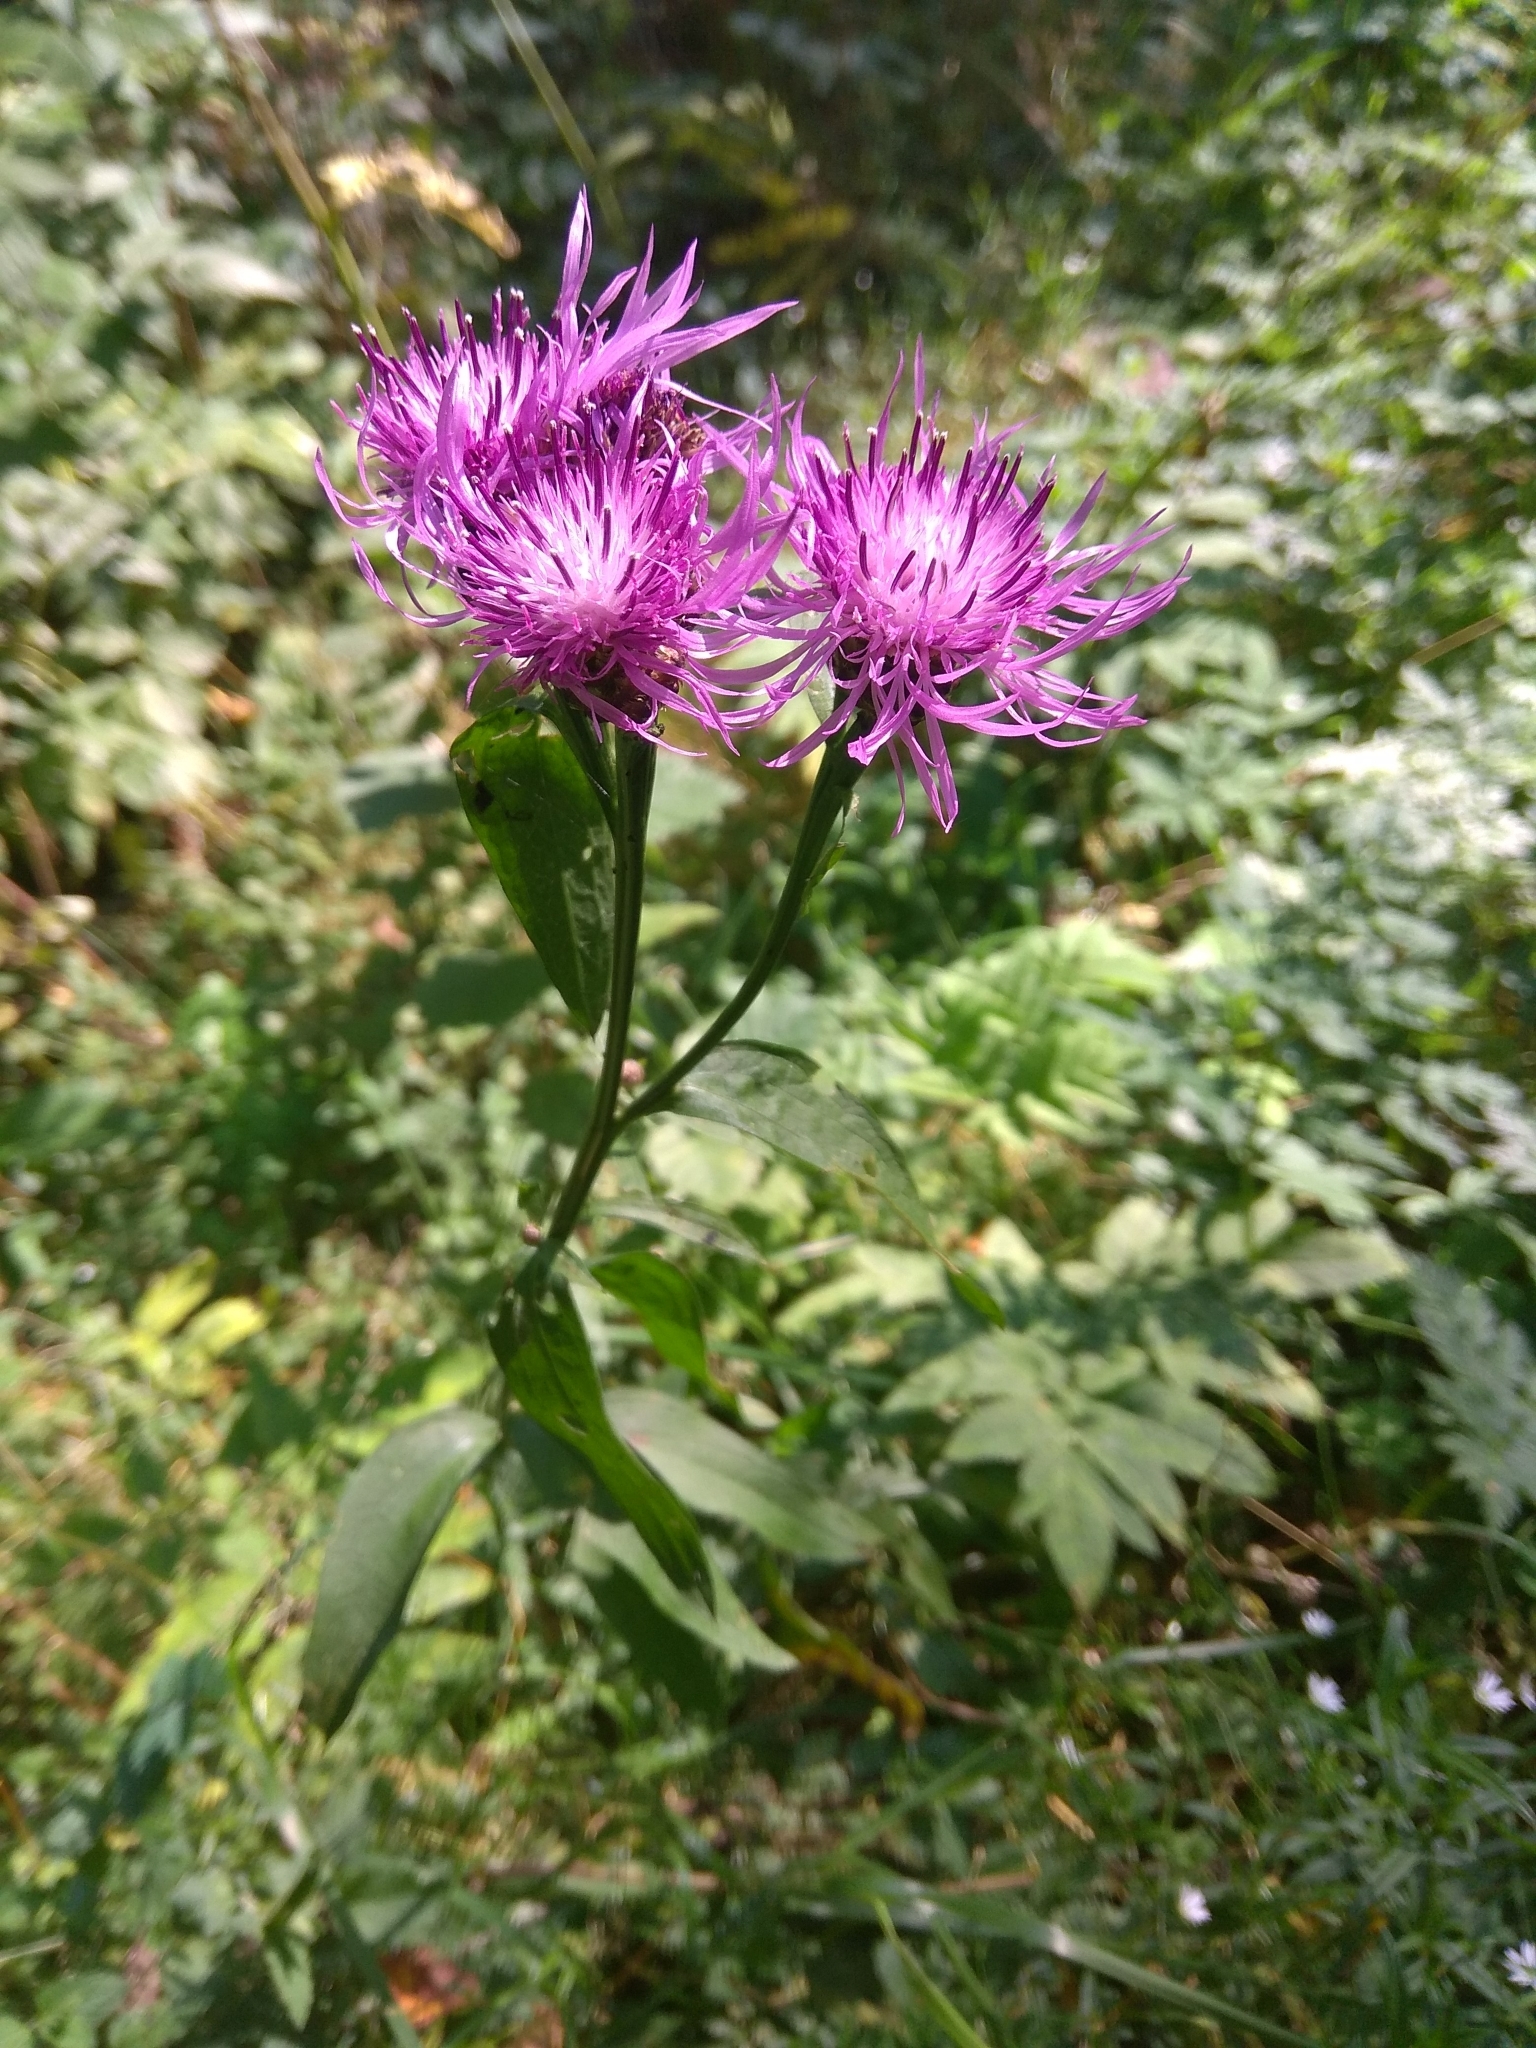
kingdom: Plantae
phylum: Tracheophyta
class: Magnoliopsida
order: Asterales
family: Asteraceae
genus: Centaurea
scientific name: Centaurea jacea
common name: Brown knapweed
